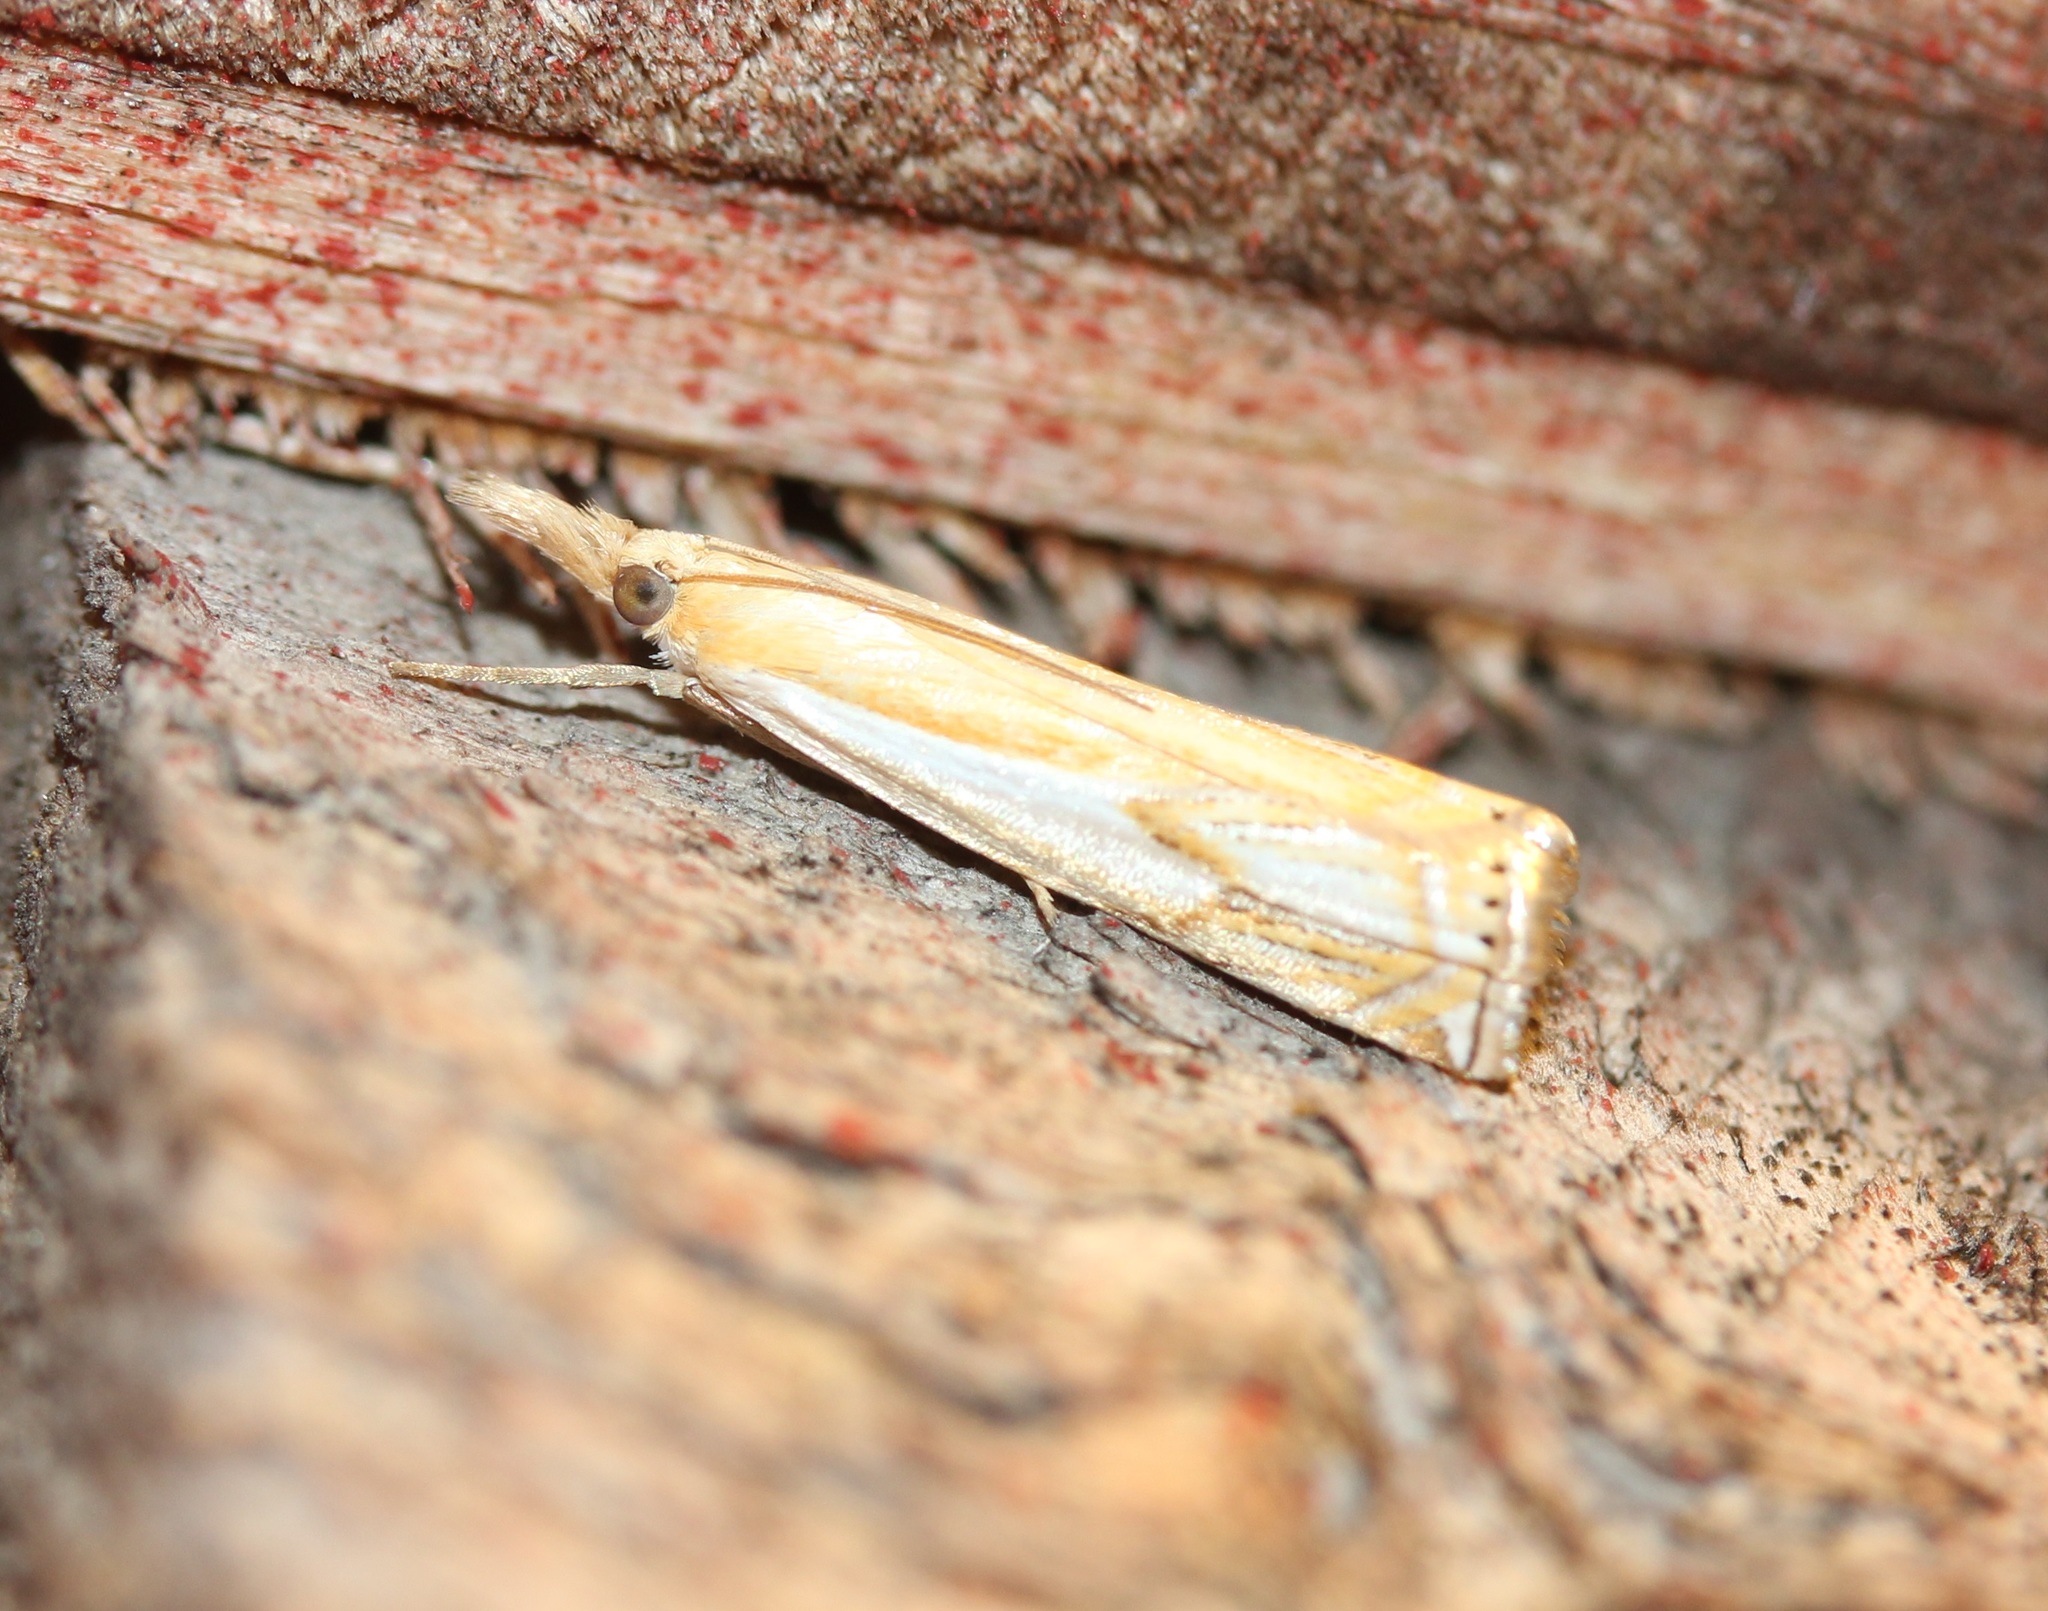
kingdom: Animalia
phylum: Arthropoda
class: Insecta
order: Lepidoptera
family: Crambidae
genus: Crambus
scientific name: Crambus saltuellus
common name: Pasture grass-veneer
